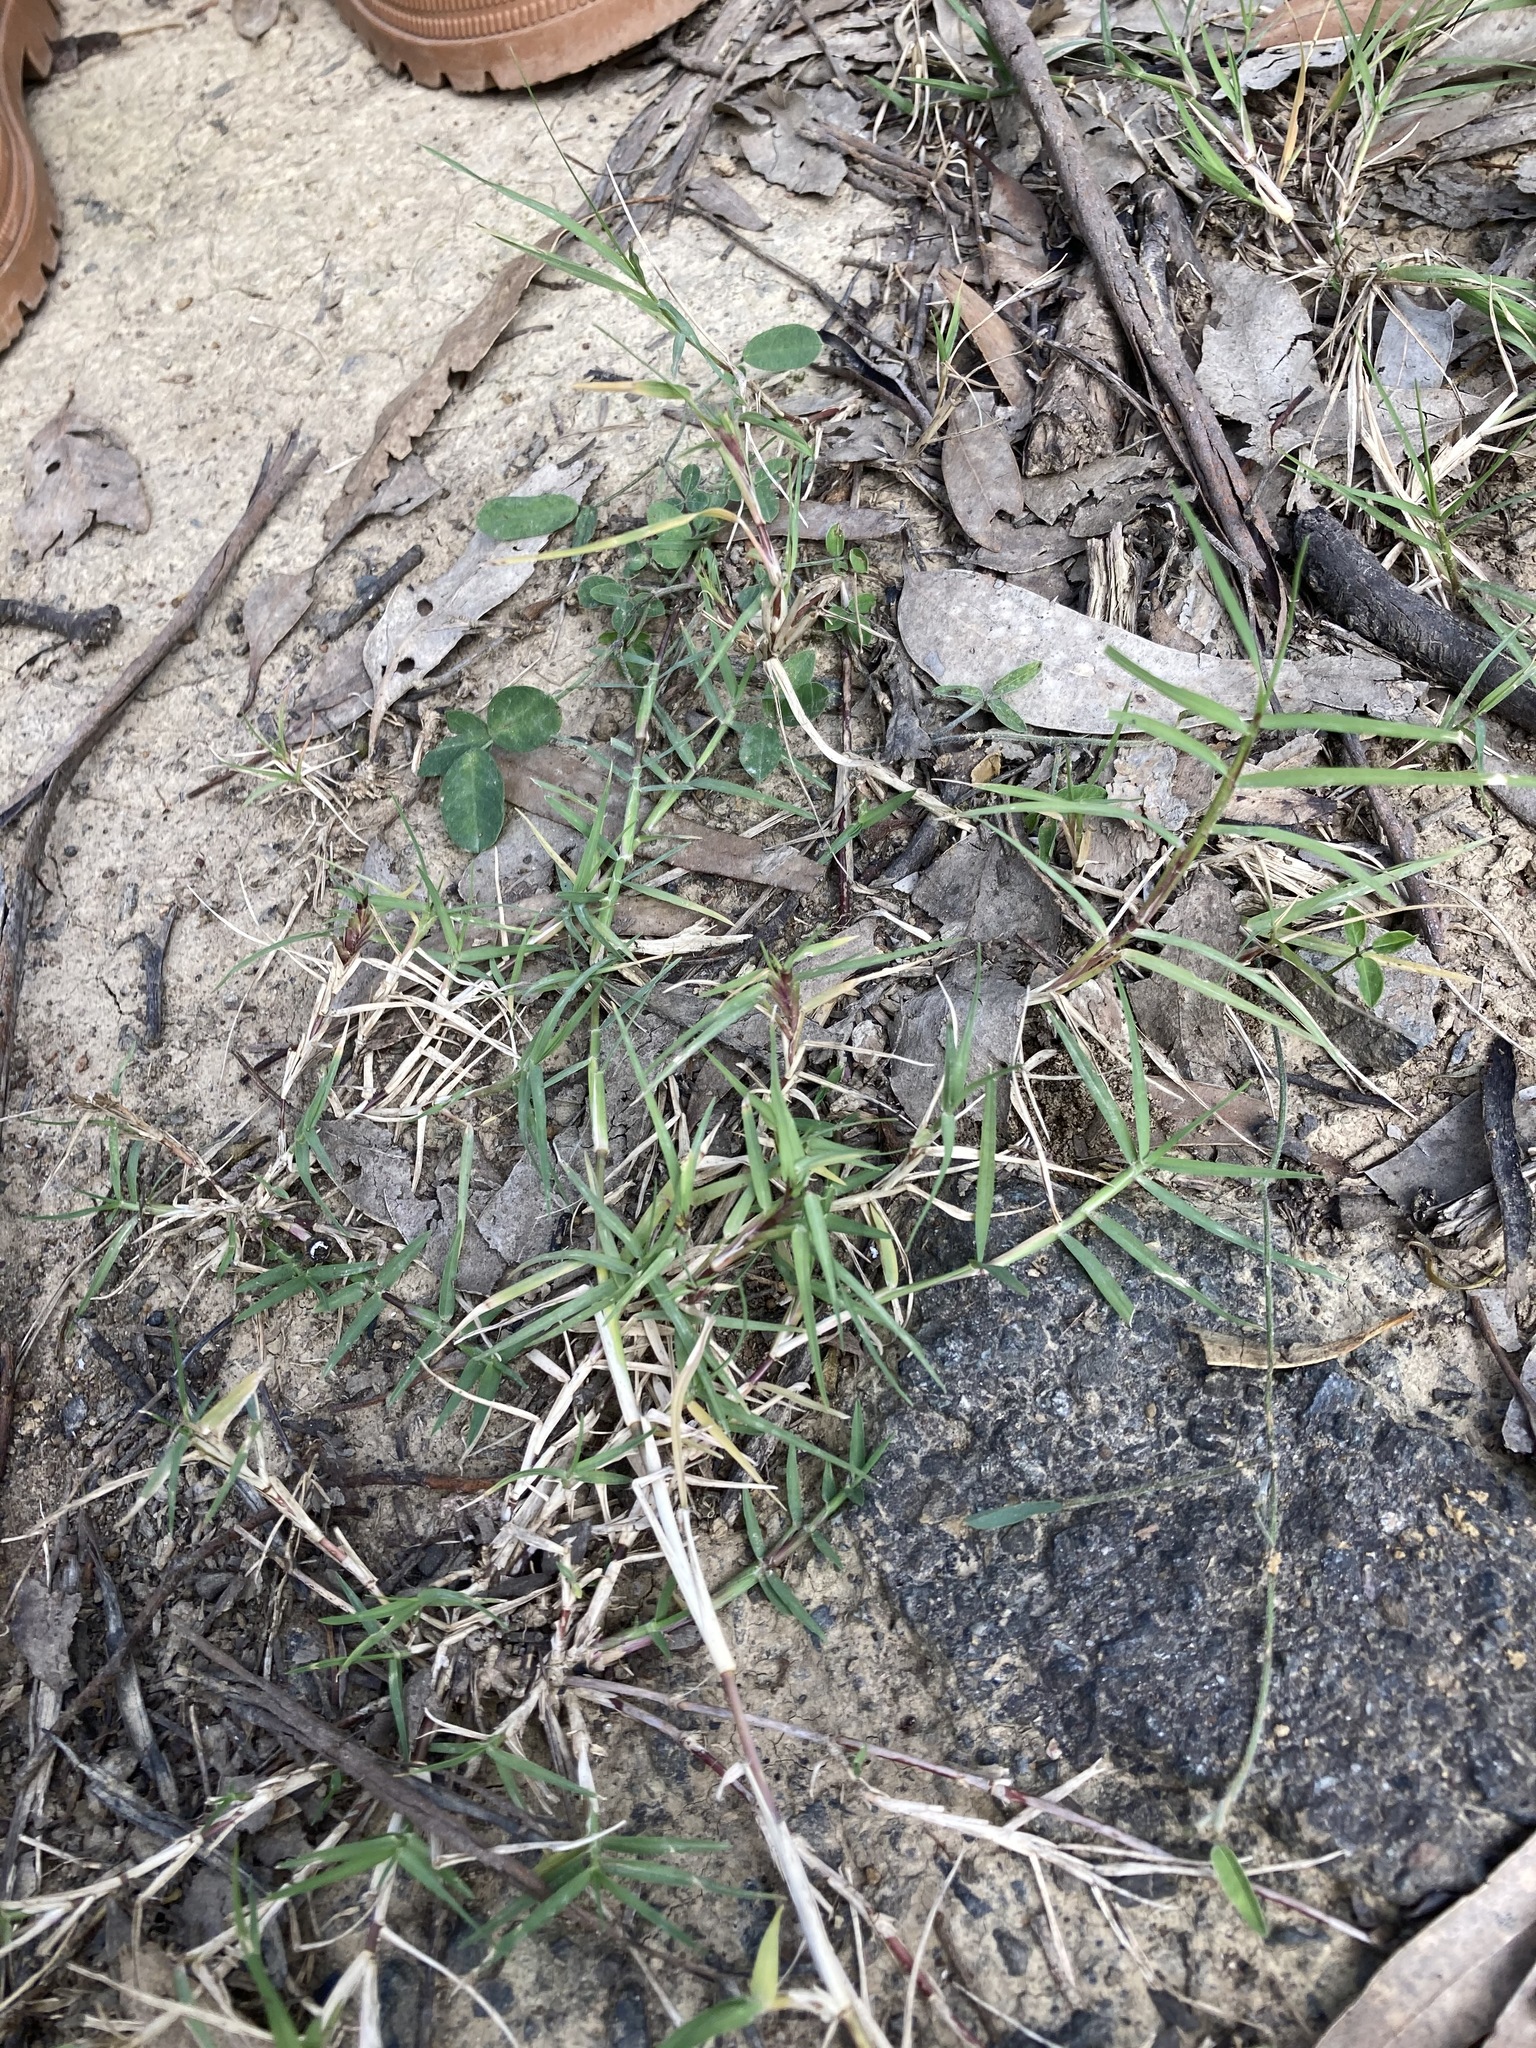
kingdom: Plantae
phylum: Tracheophyta
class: Liliopsida
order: Poales
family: Poaceae
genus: Cynodon
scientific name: Cynodon dactylon
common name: Bermuda grass
